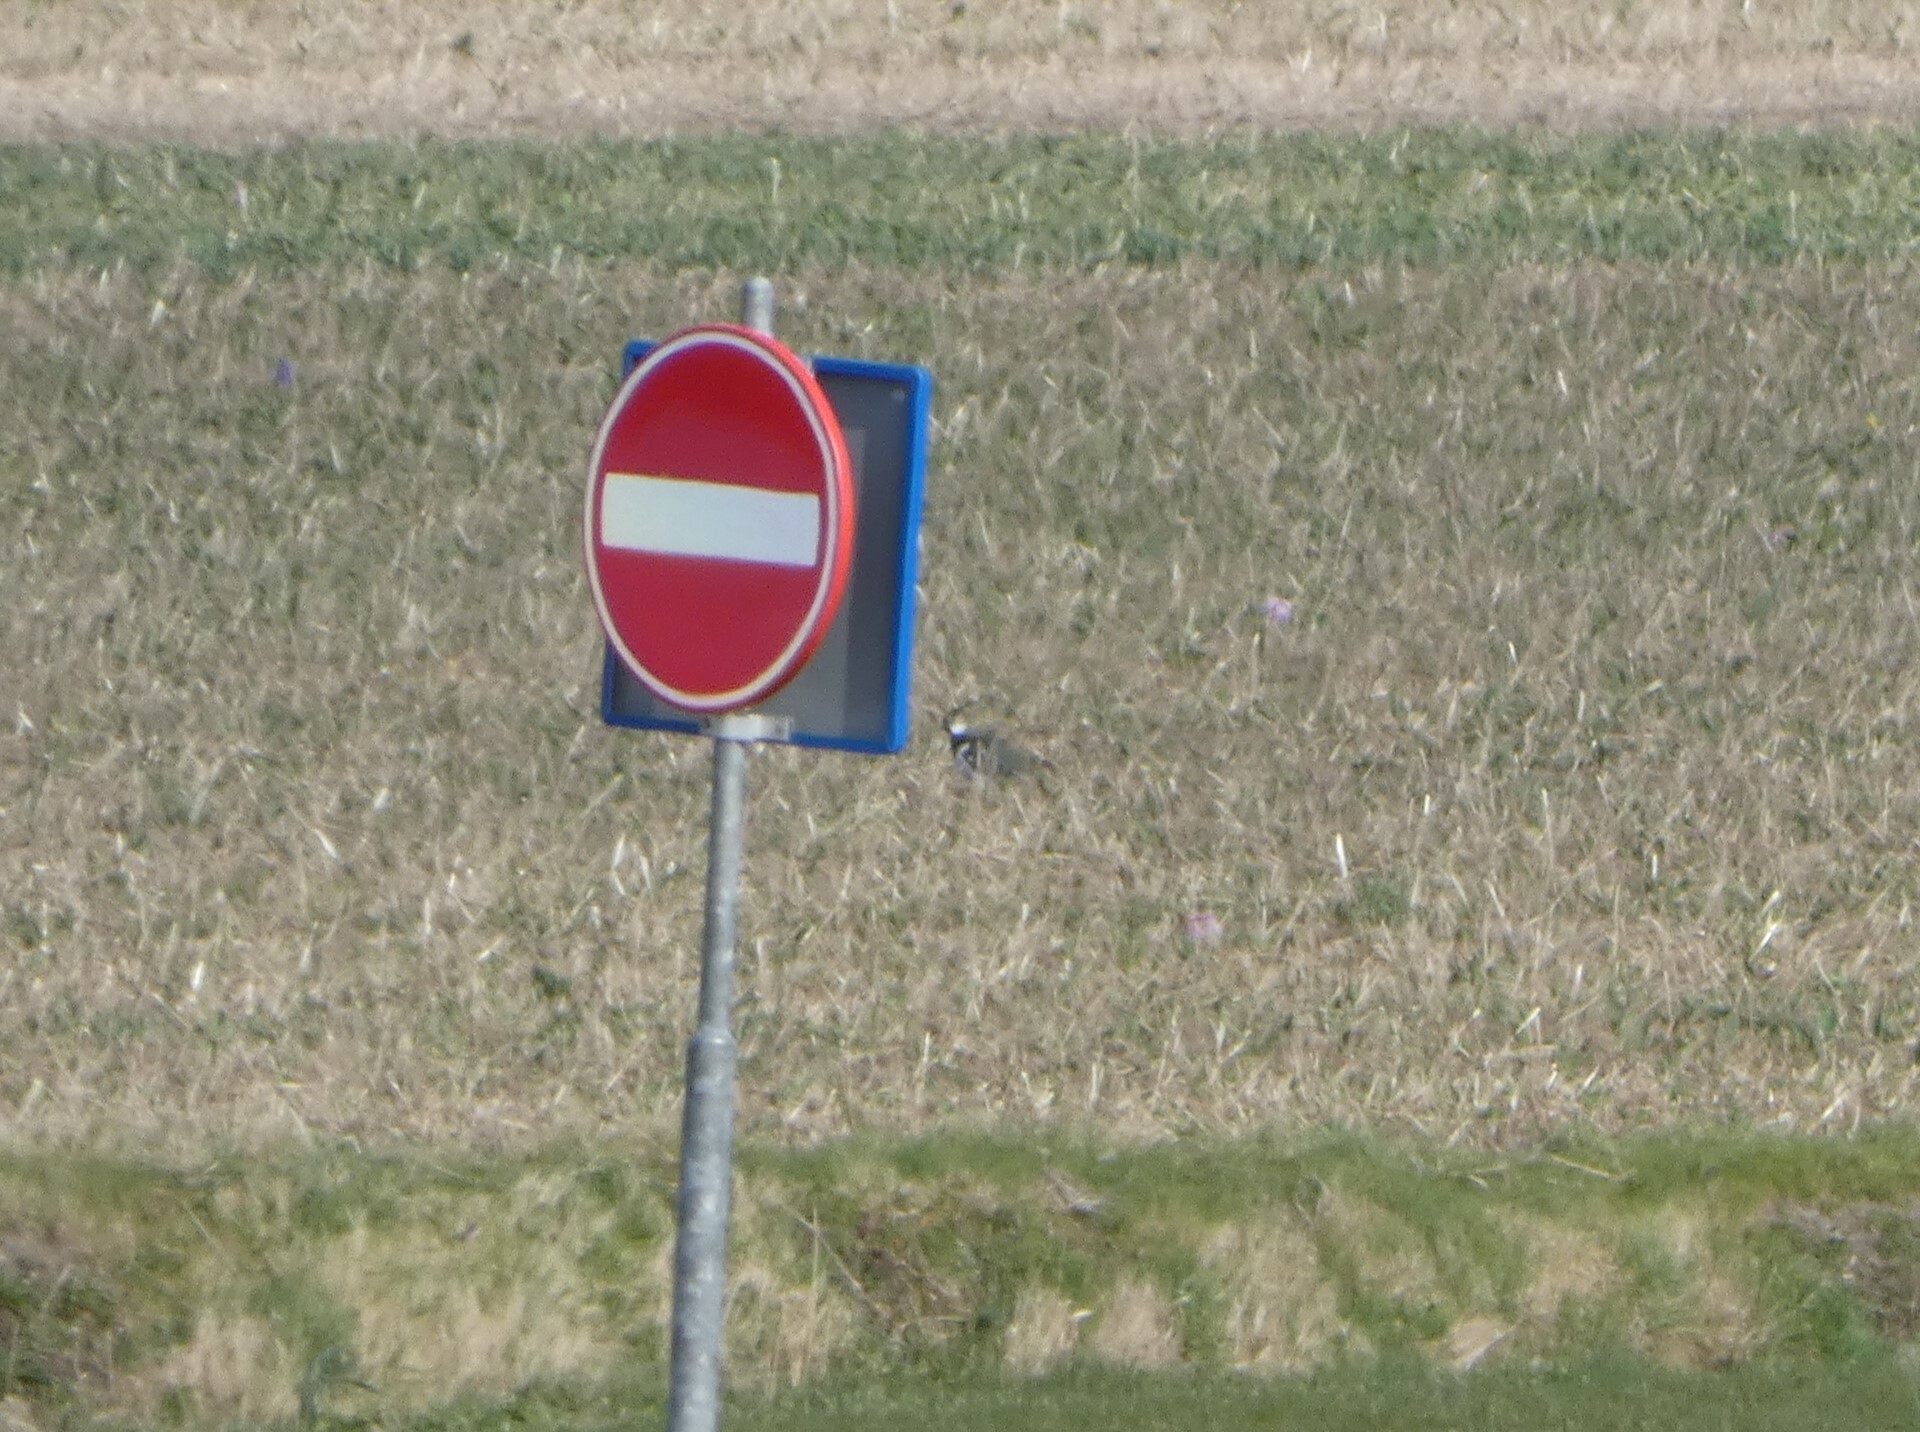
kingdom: Animalia
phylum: Chordata
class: Aves
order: Charadriiformes
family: Charadriidae
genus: Vanellus
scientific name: Vanellus vanellus
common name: Northern lapwing
